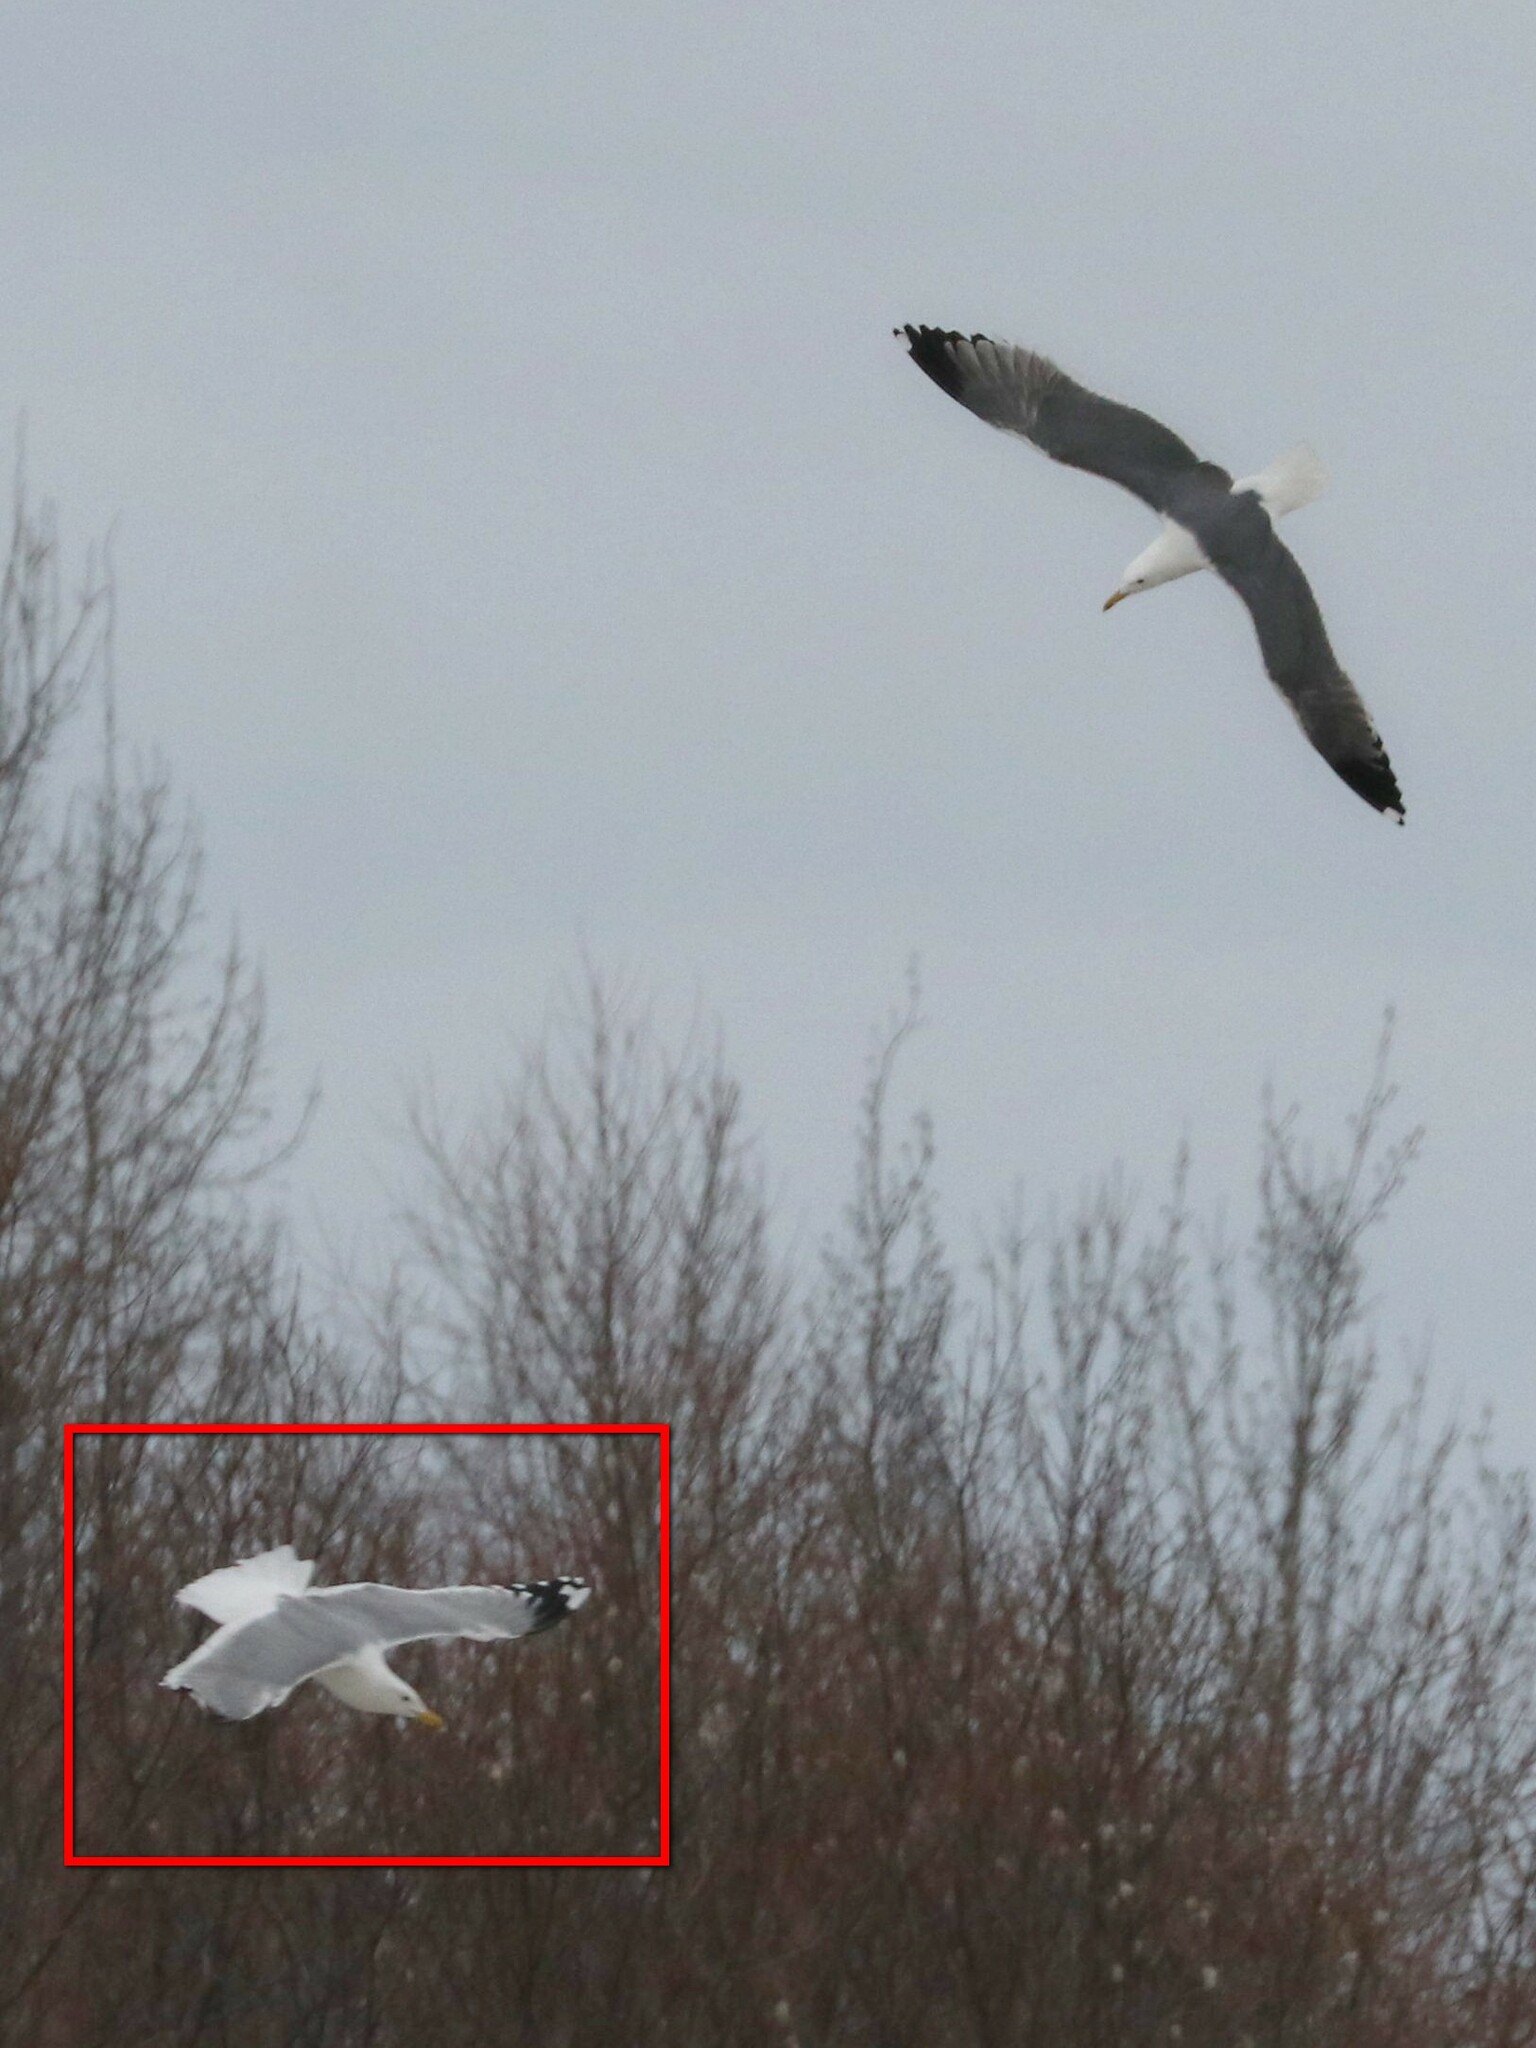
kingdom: Animalia
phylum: Chordata
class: Aves
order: Charadriiformes
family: Laridae
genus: Larus
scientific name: Larus cachinnans
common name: Caspian gull
